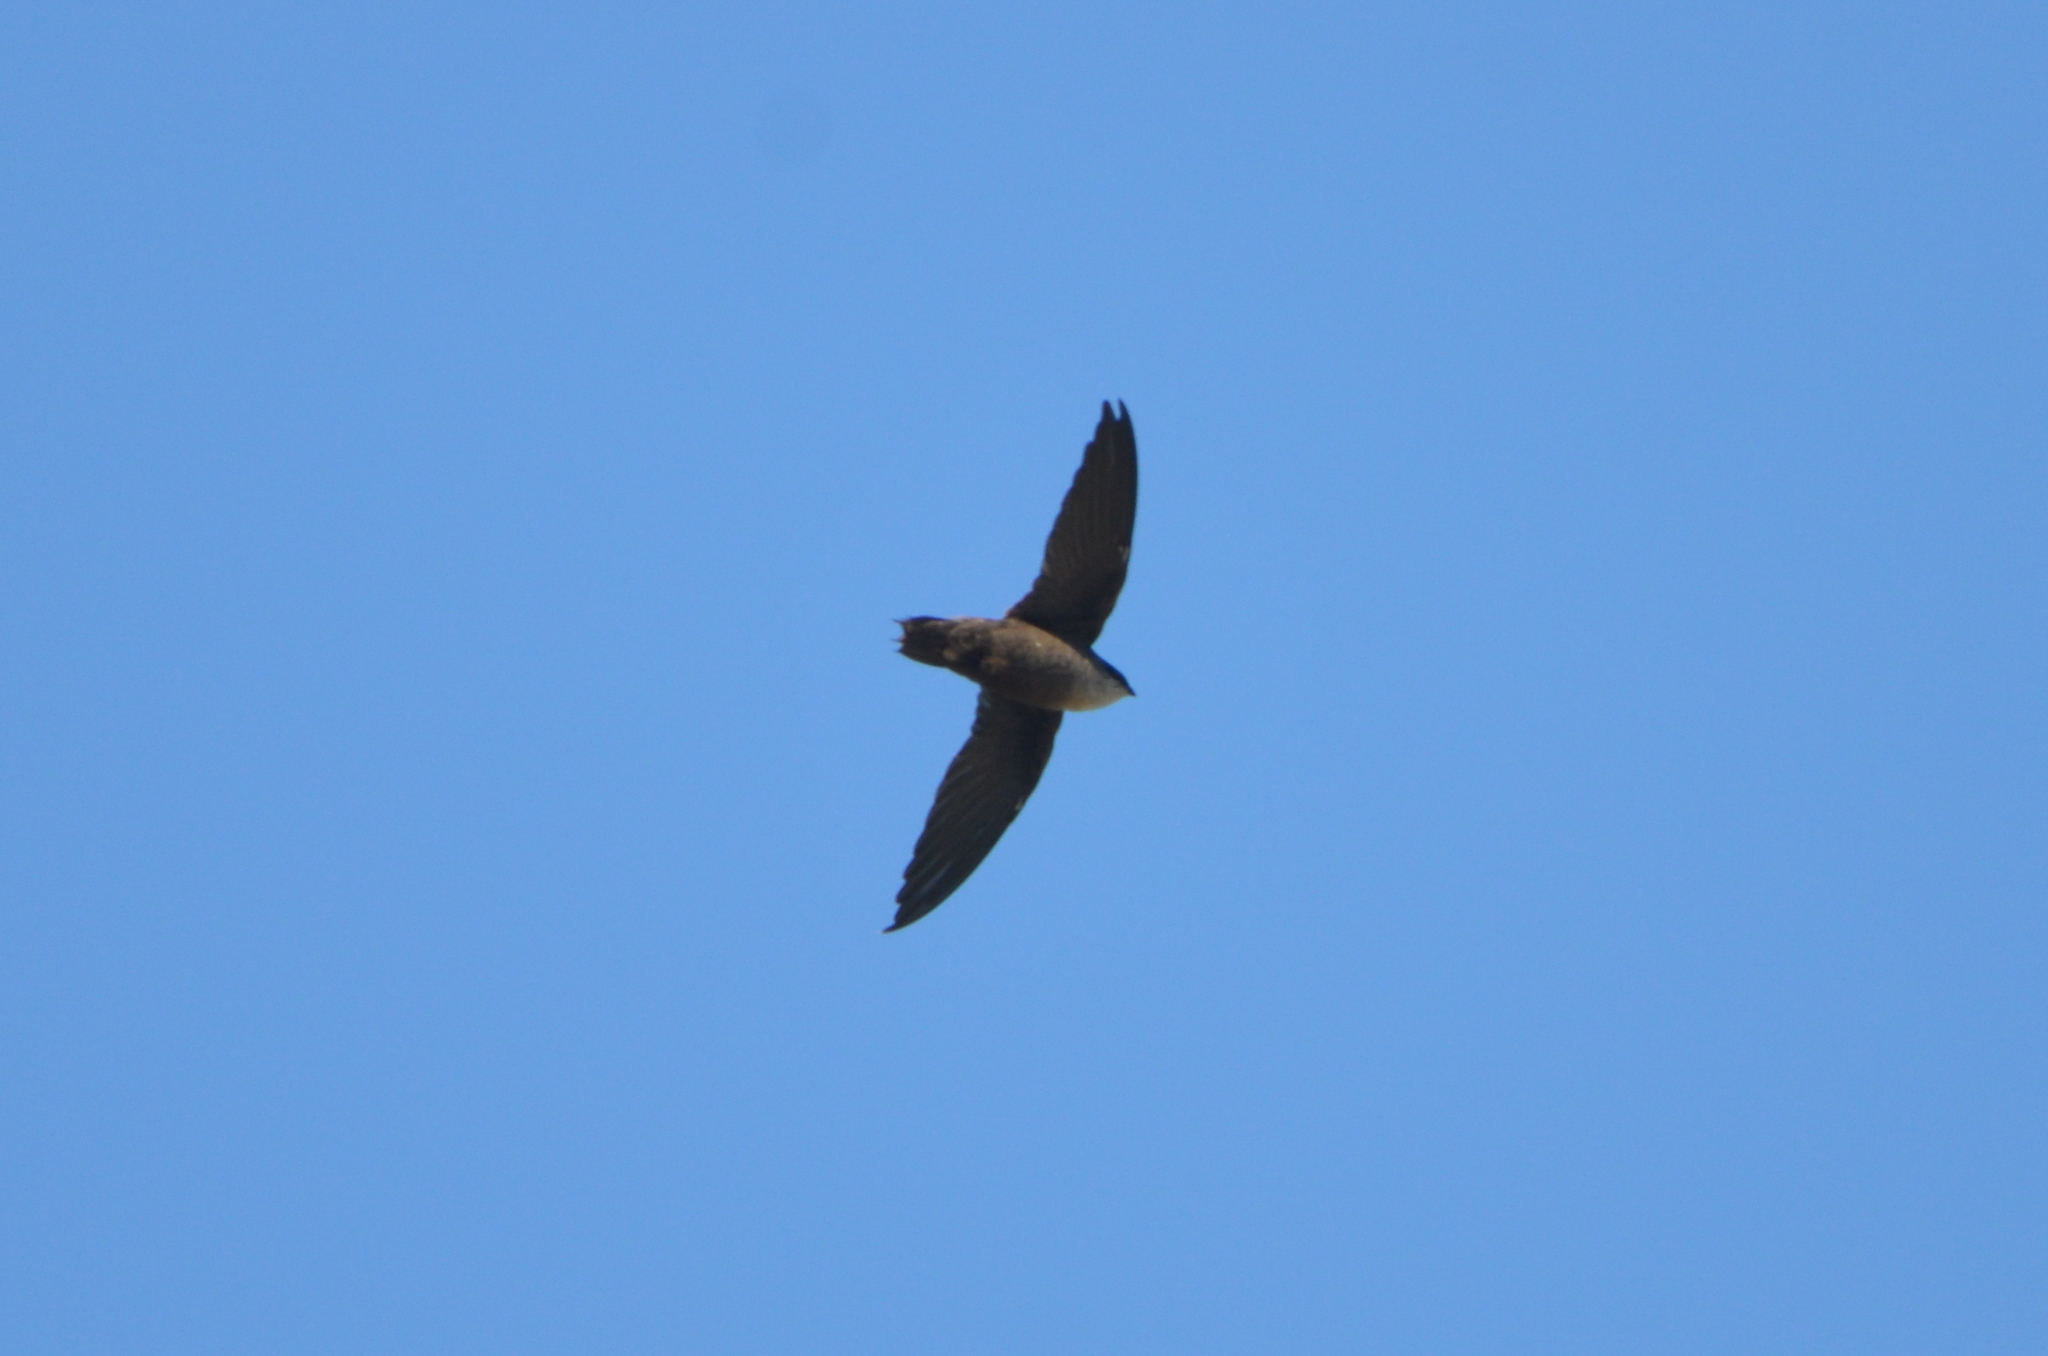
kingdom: Animalia
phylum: Chordata
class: Aves
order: Apodiformes
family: Apodidae
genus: Chaetura
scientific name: Chaetura pelagica
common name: Chimney swift
